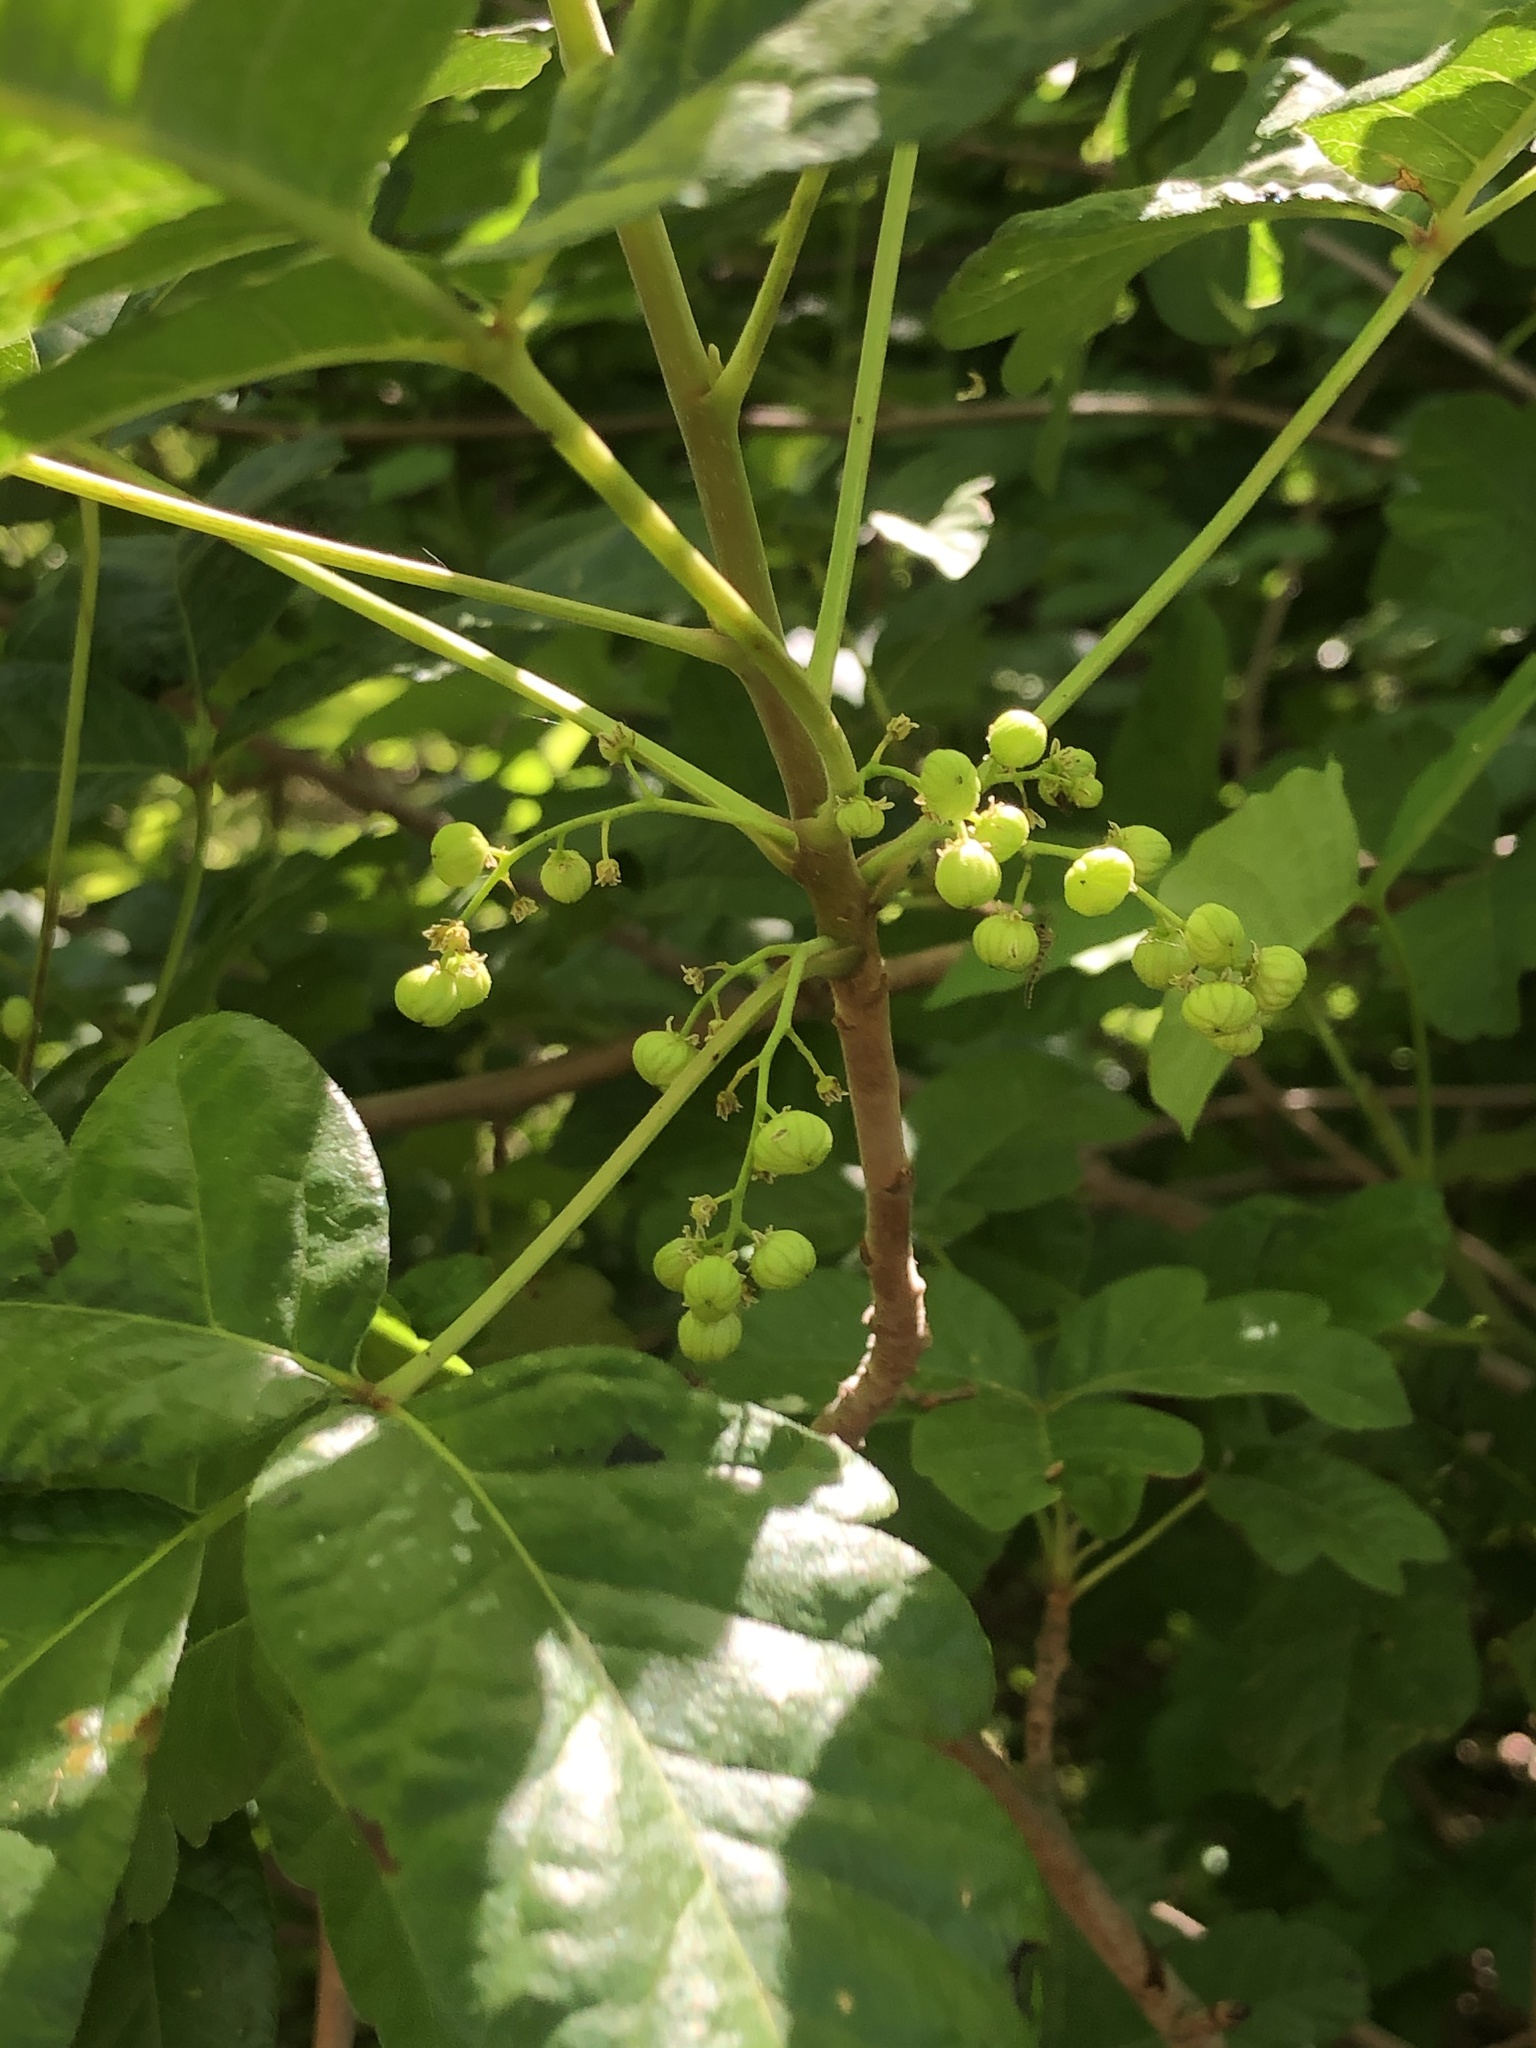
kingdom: Plantae
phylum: Tracheophyta
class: Magnoliopsida
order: Sapindales
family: Anacardiaceae
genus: Toxicodendron
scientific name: Toxicodendron diversilobum
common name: Pacific poison-oak
